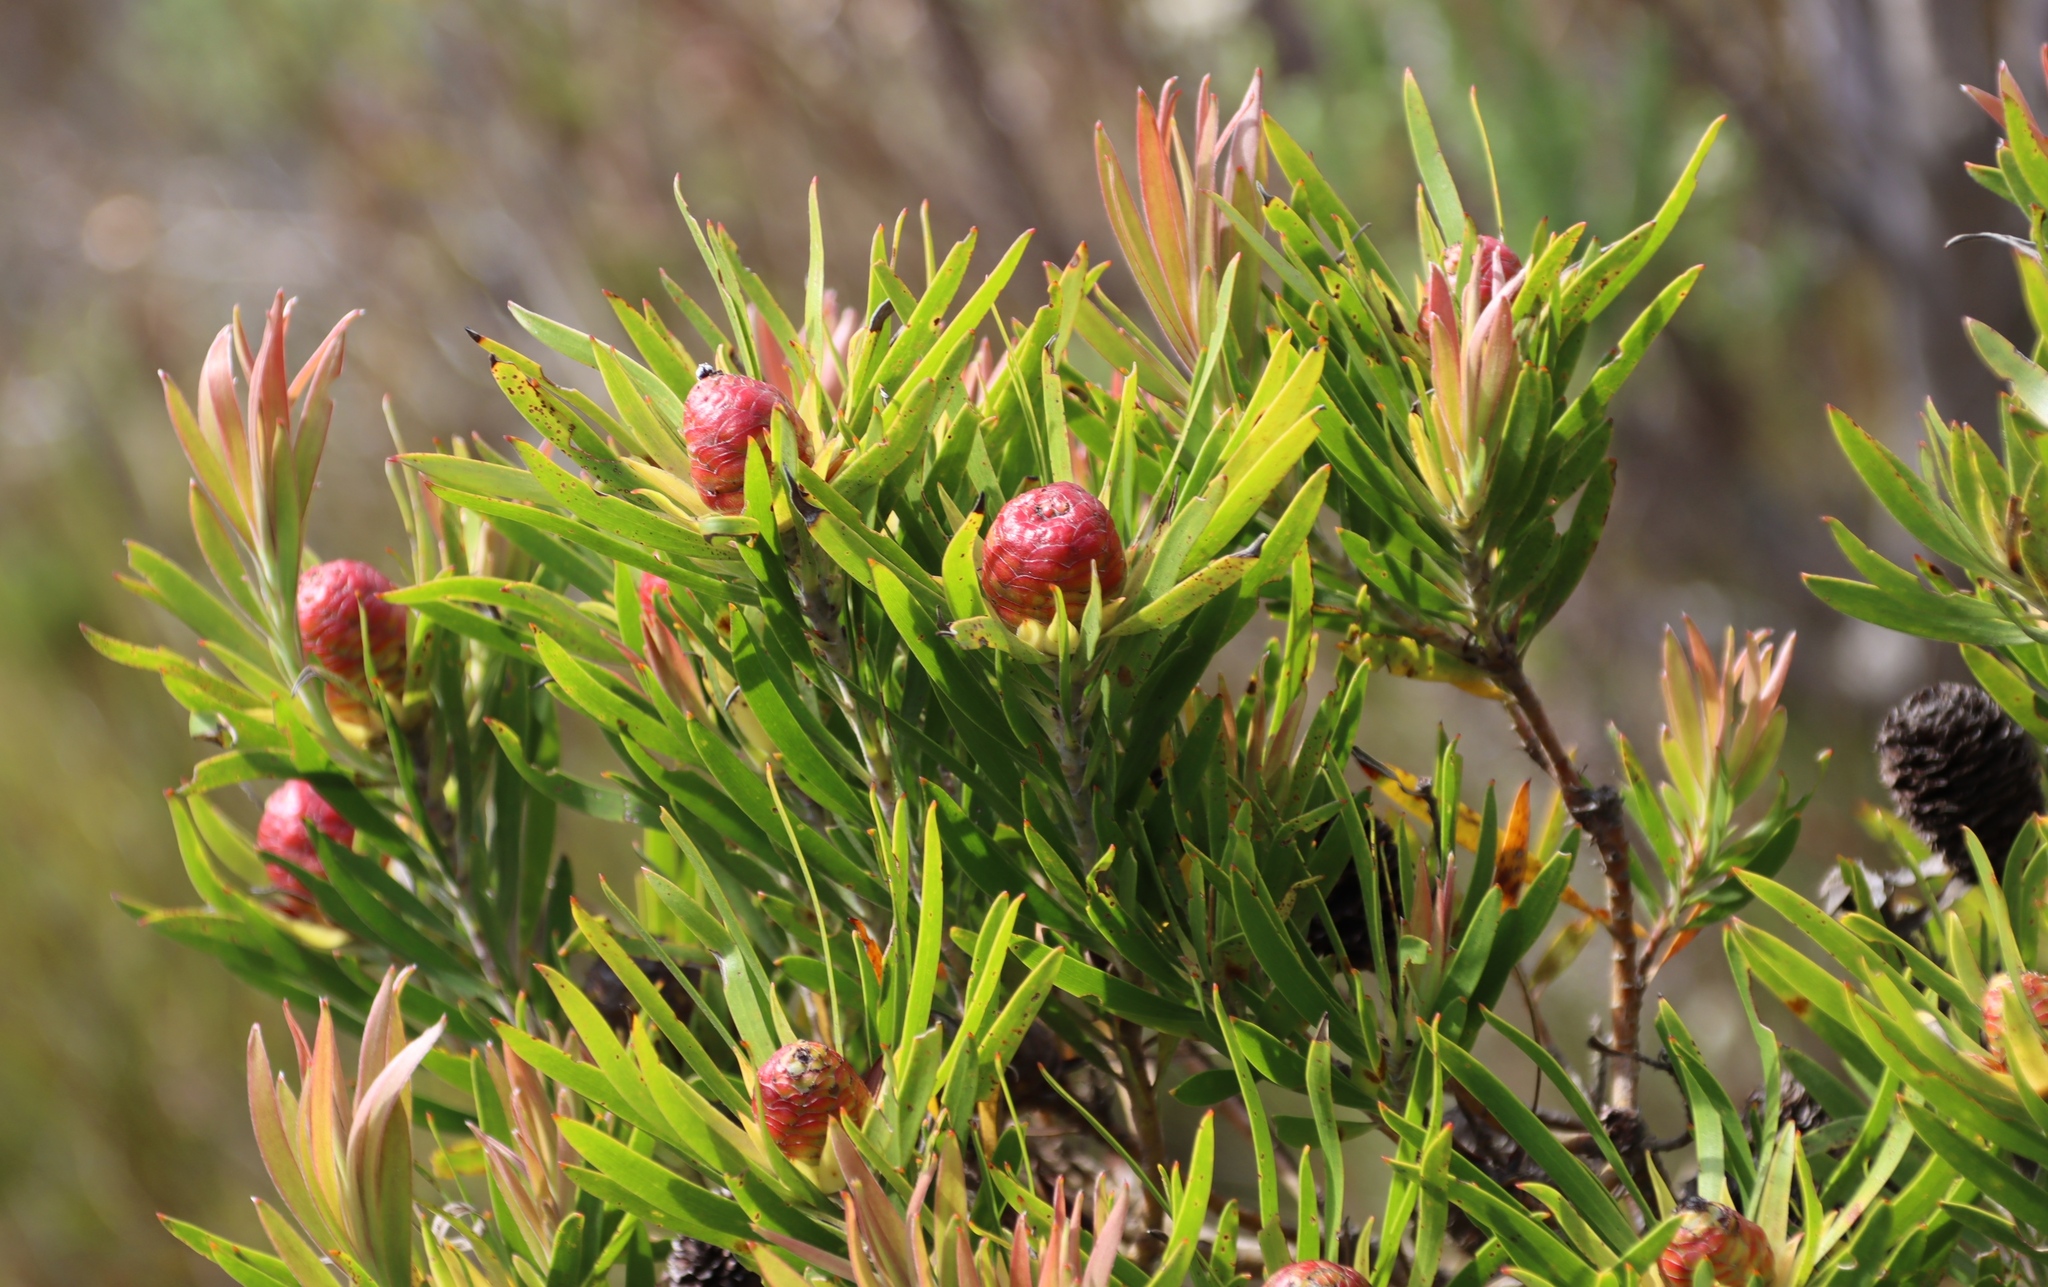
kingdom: Plantae
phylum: Tracheophyta
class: Magnoliopsida
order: Proteales
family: Proteaceae
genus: Leucadendron
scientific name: Leucadendron spissifolium
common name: Spear-leaf conebush
